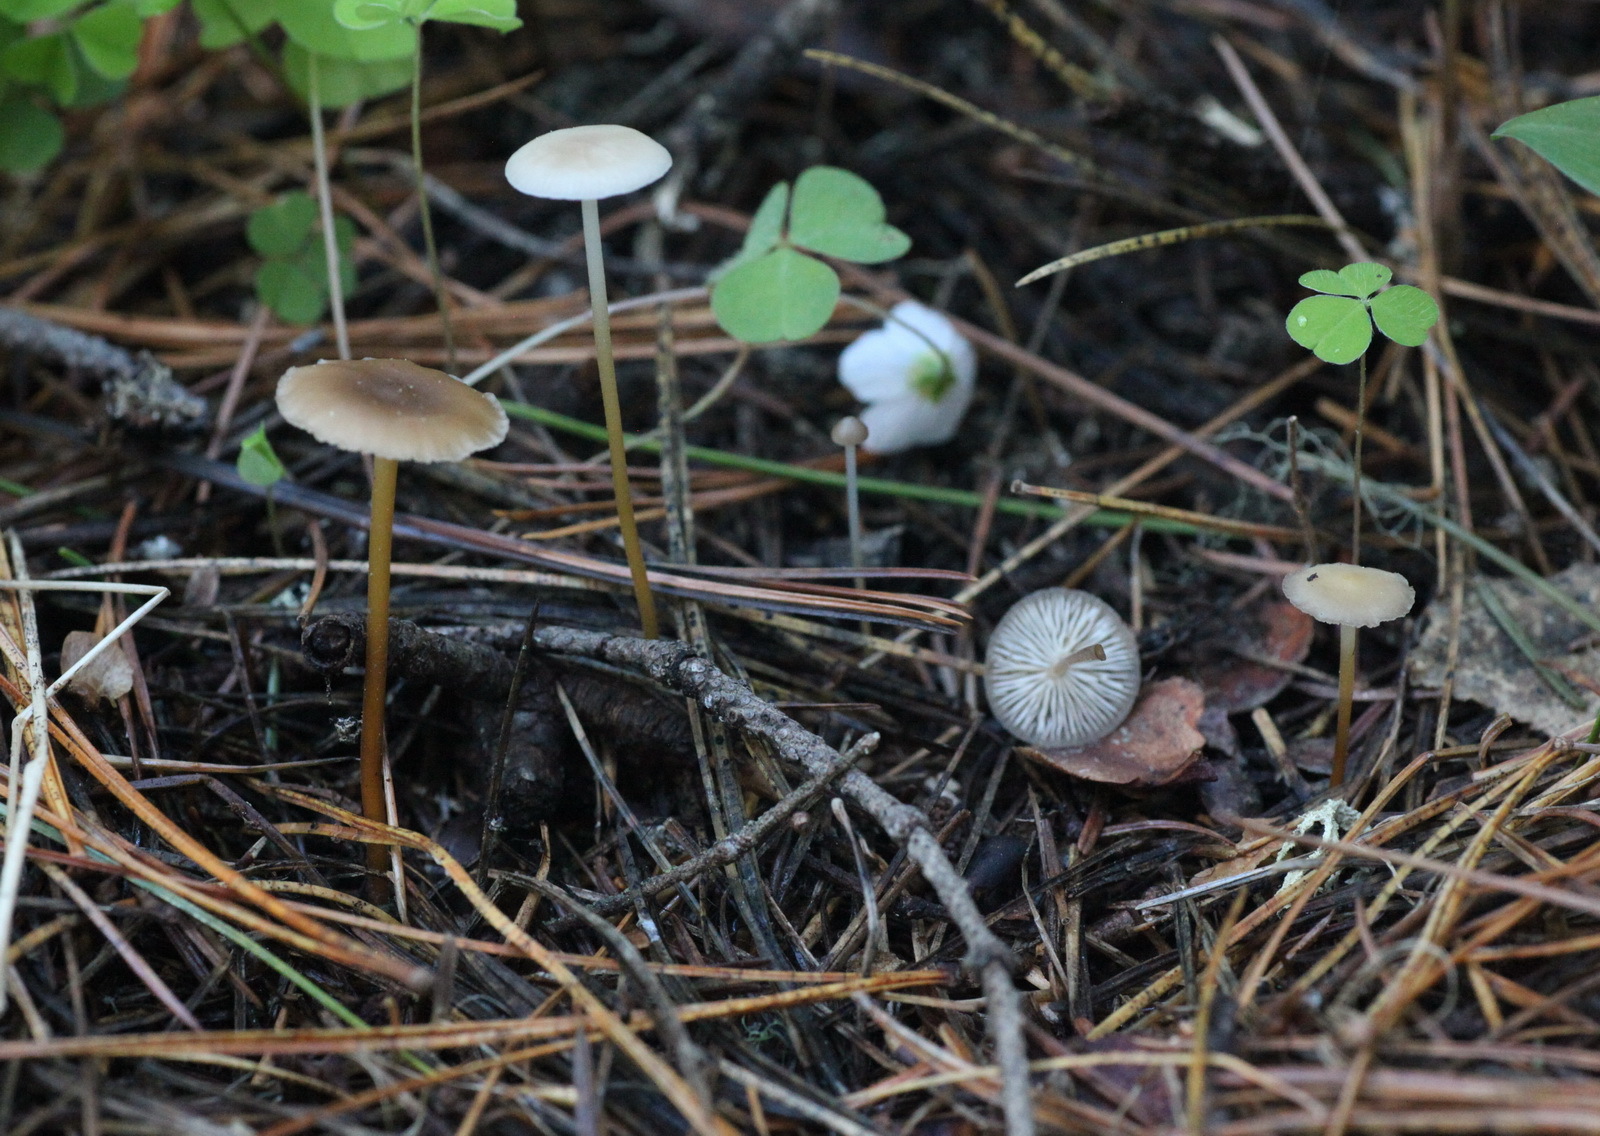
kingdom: Fungi
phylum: Basidiomycota
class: Agaricomycetes
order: Agaricales
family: Physalacriaceae
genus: Strobilurus
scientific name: Strobilurus stephanocystis
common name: Russian conecap
